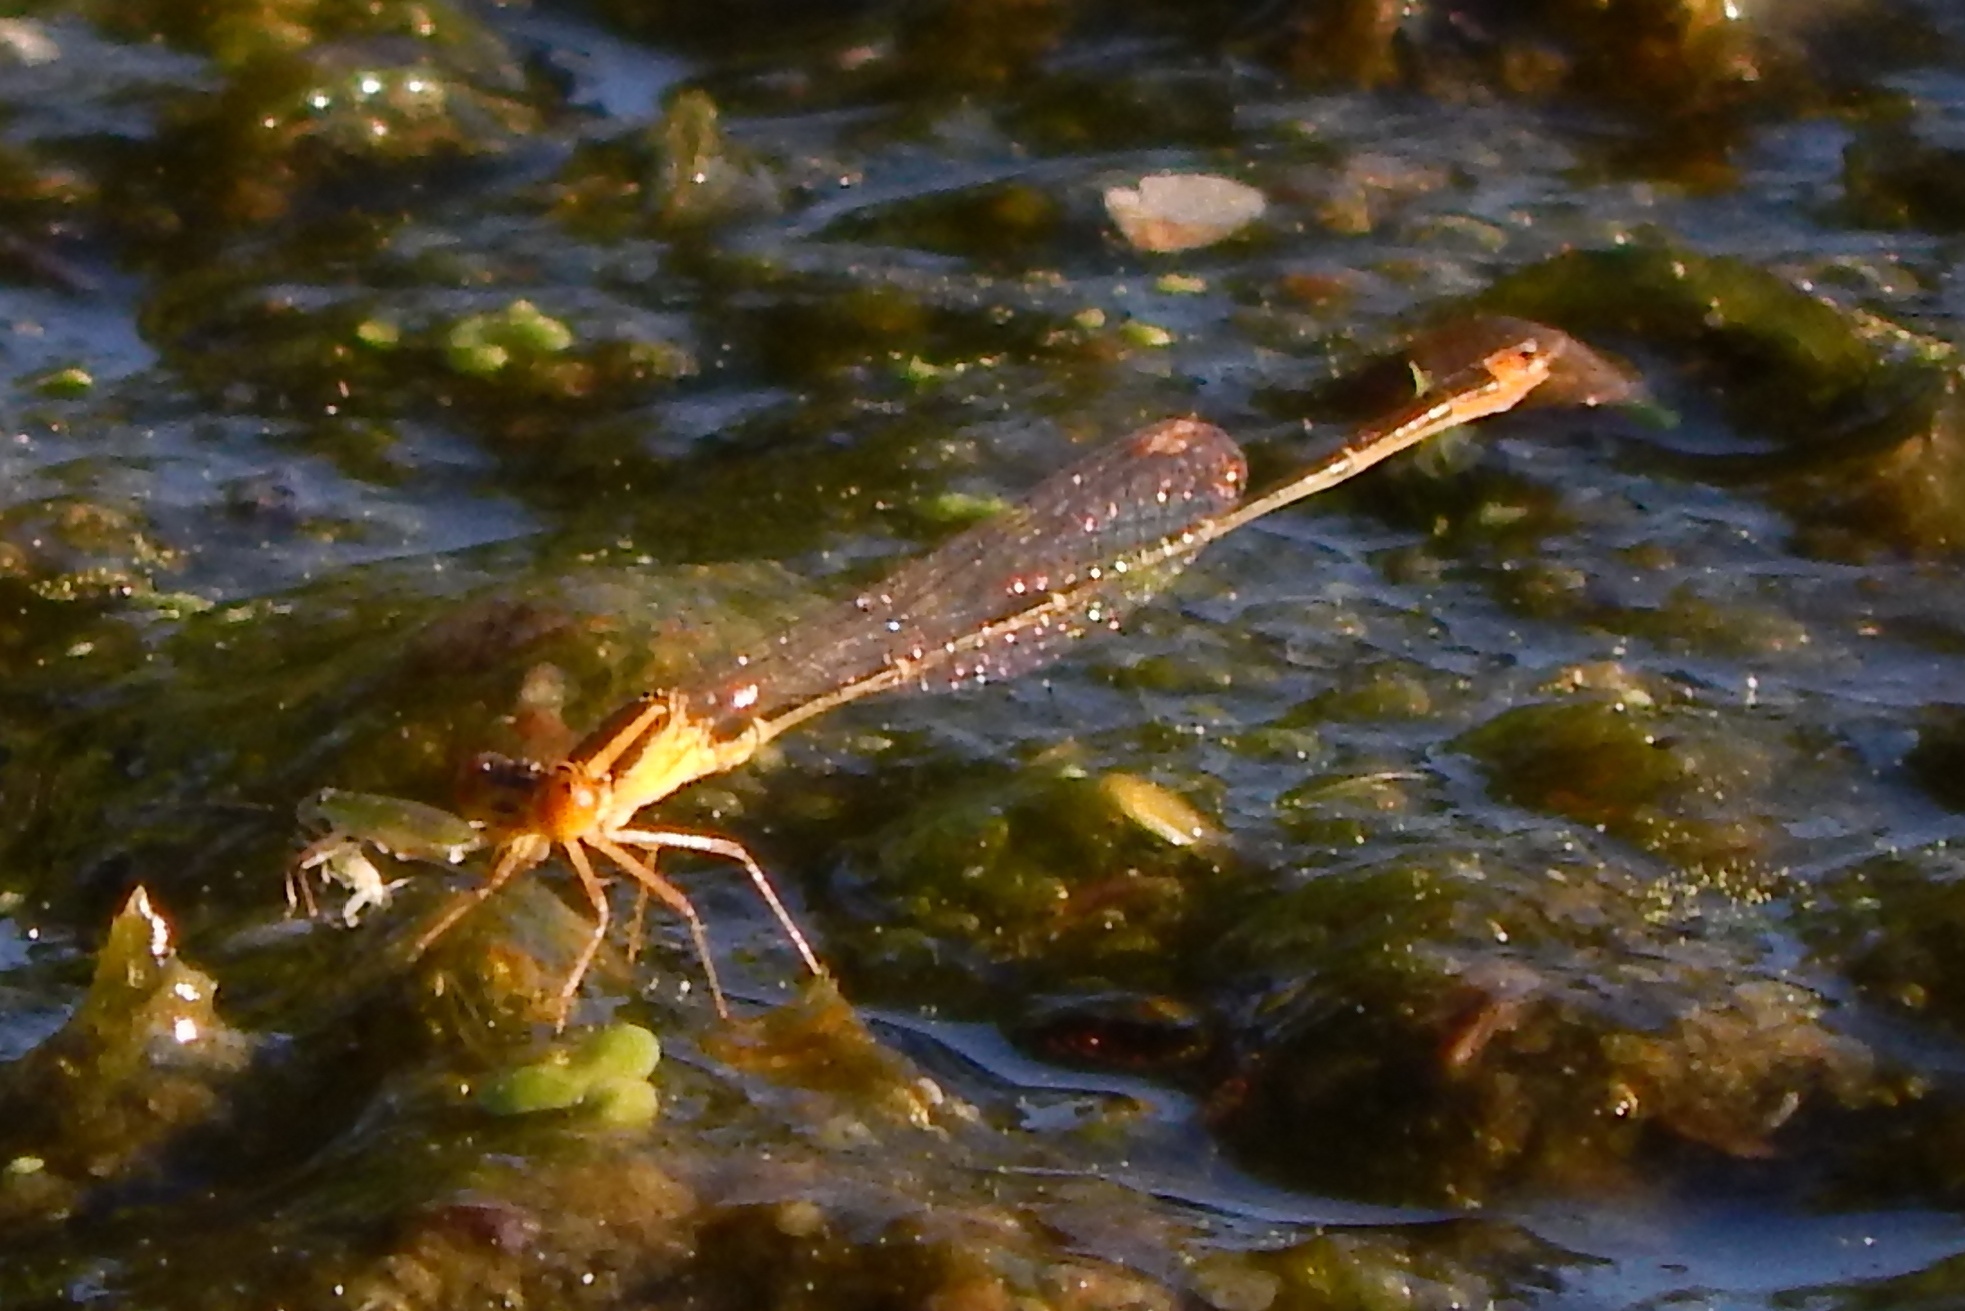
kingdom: Animalia
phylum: Arthropoda
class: Insecta
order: Odonata
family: Coenagrionidae
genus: Enallagma
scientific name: Enallagma signatum
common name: Orange bluet
